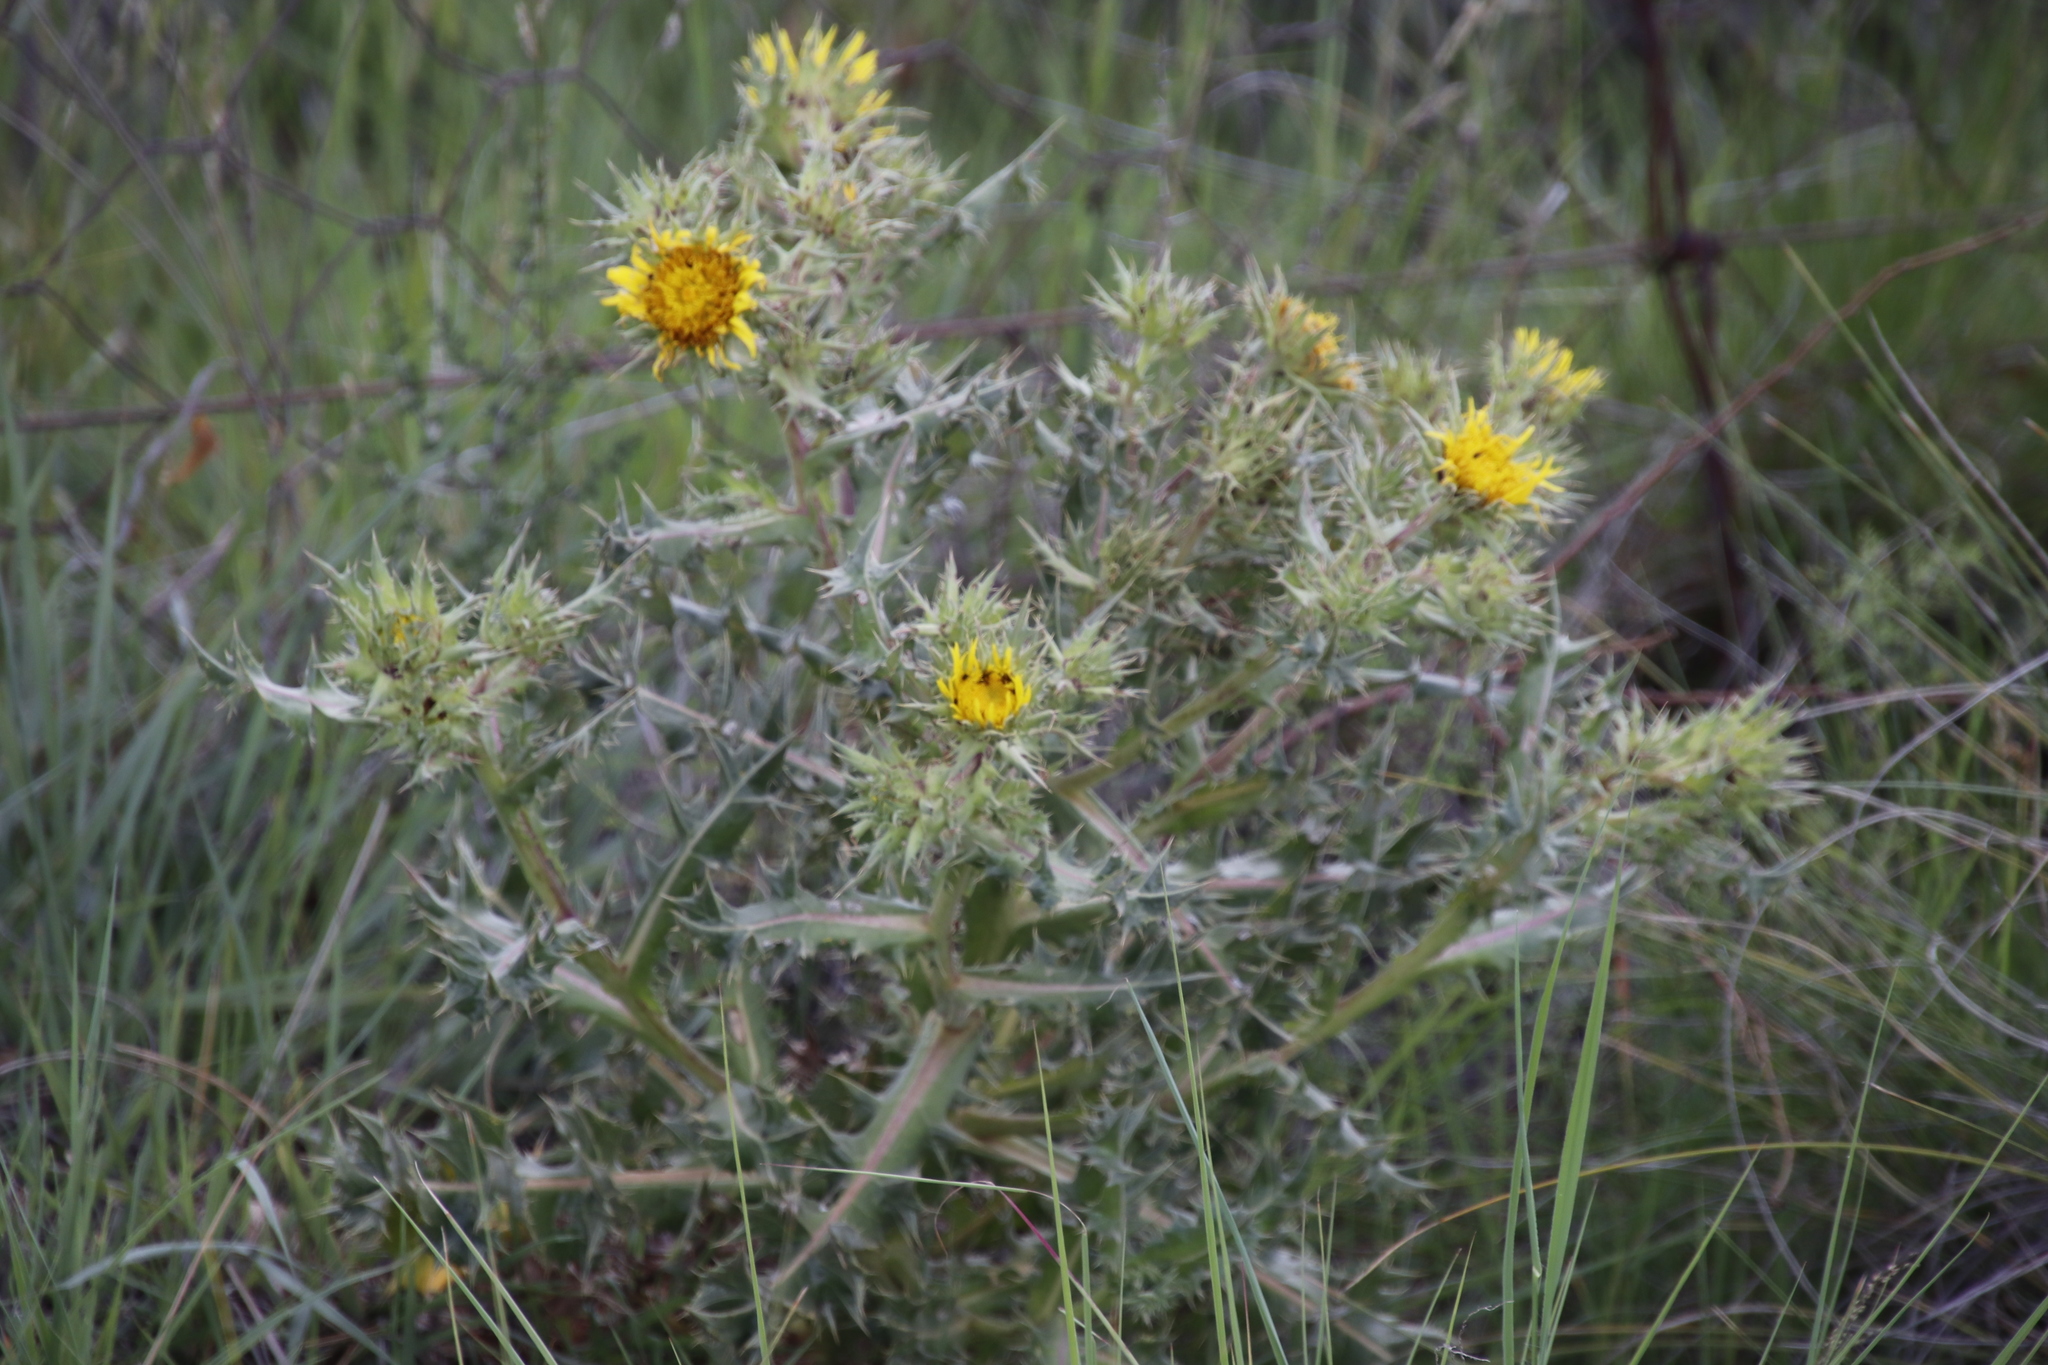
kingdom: Plantae
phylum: Tracheophyta
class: Magnoliopsida
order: Asterales
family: Asteraceae
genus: Berkheya
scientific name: Berkheya onopordifolia
